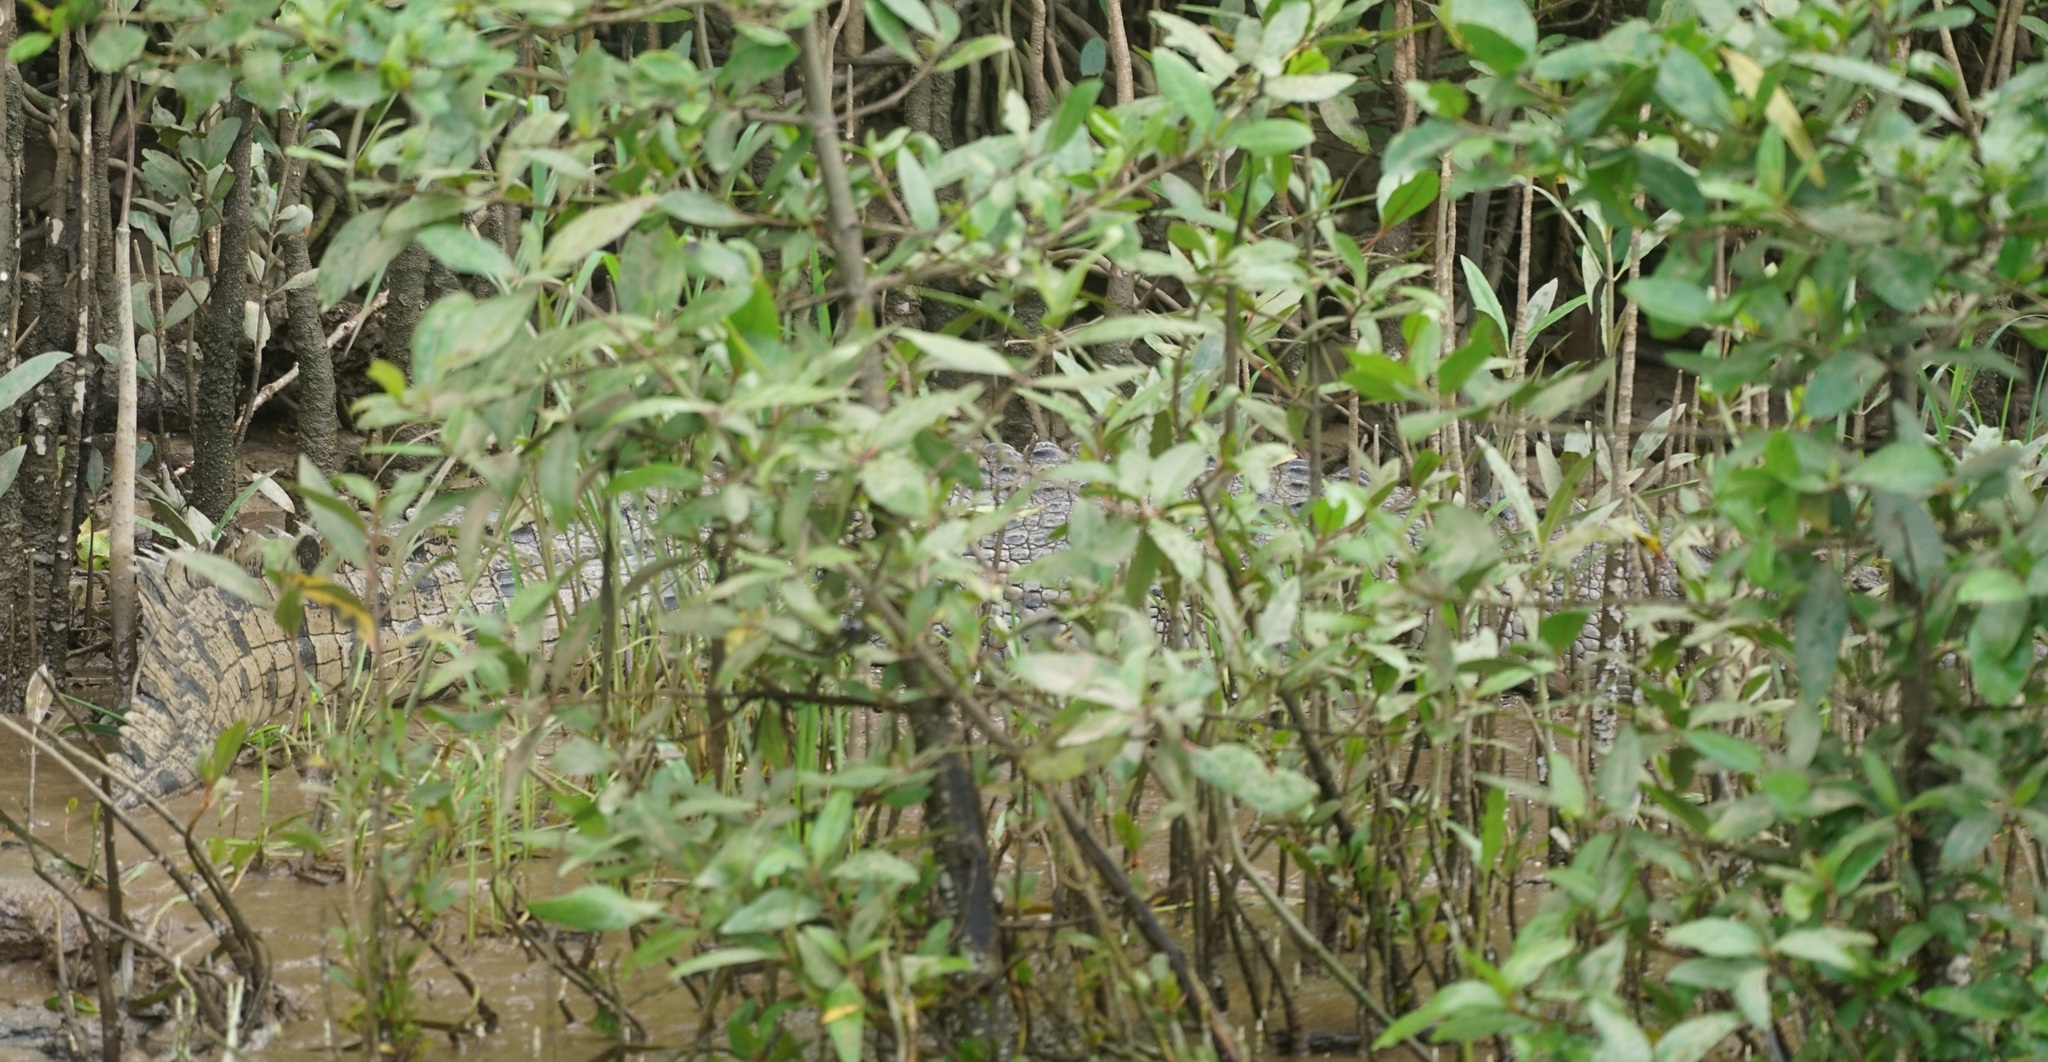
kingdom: Animalia
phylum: Chordata
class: Crocodylia
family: Crocodylidae
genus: Crocodylus
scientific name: Crocodylus porosus
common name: Saltwater crocodile
